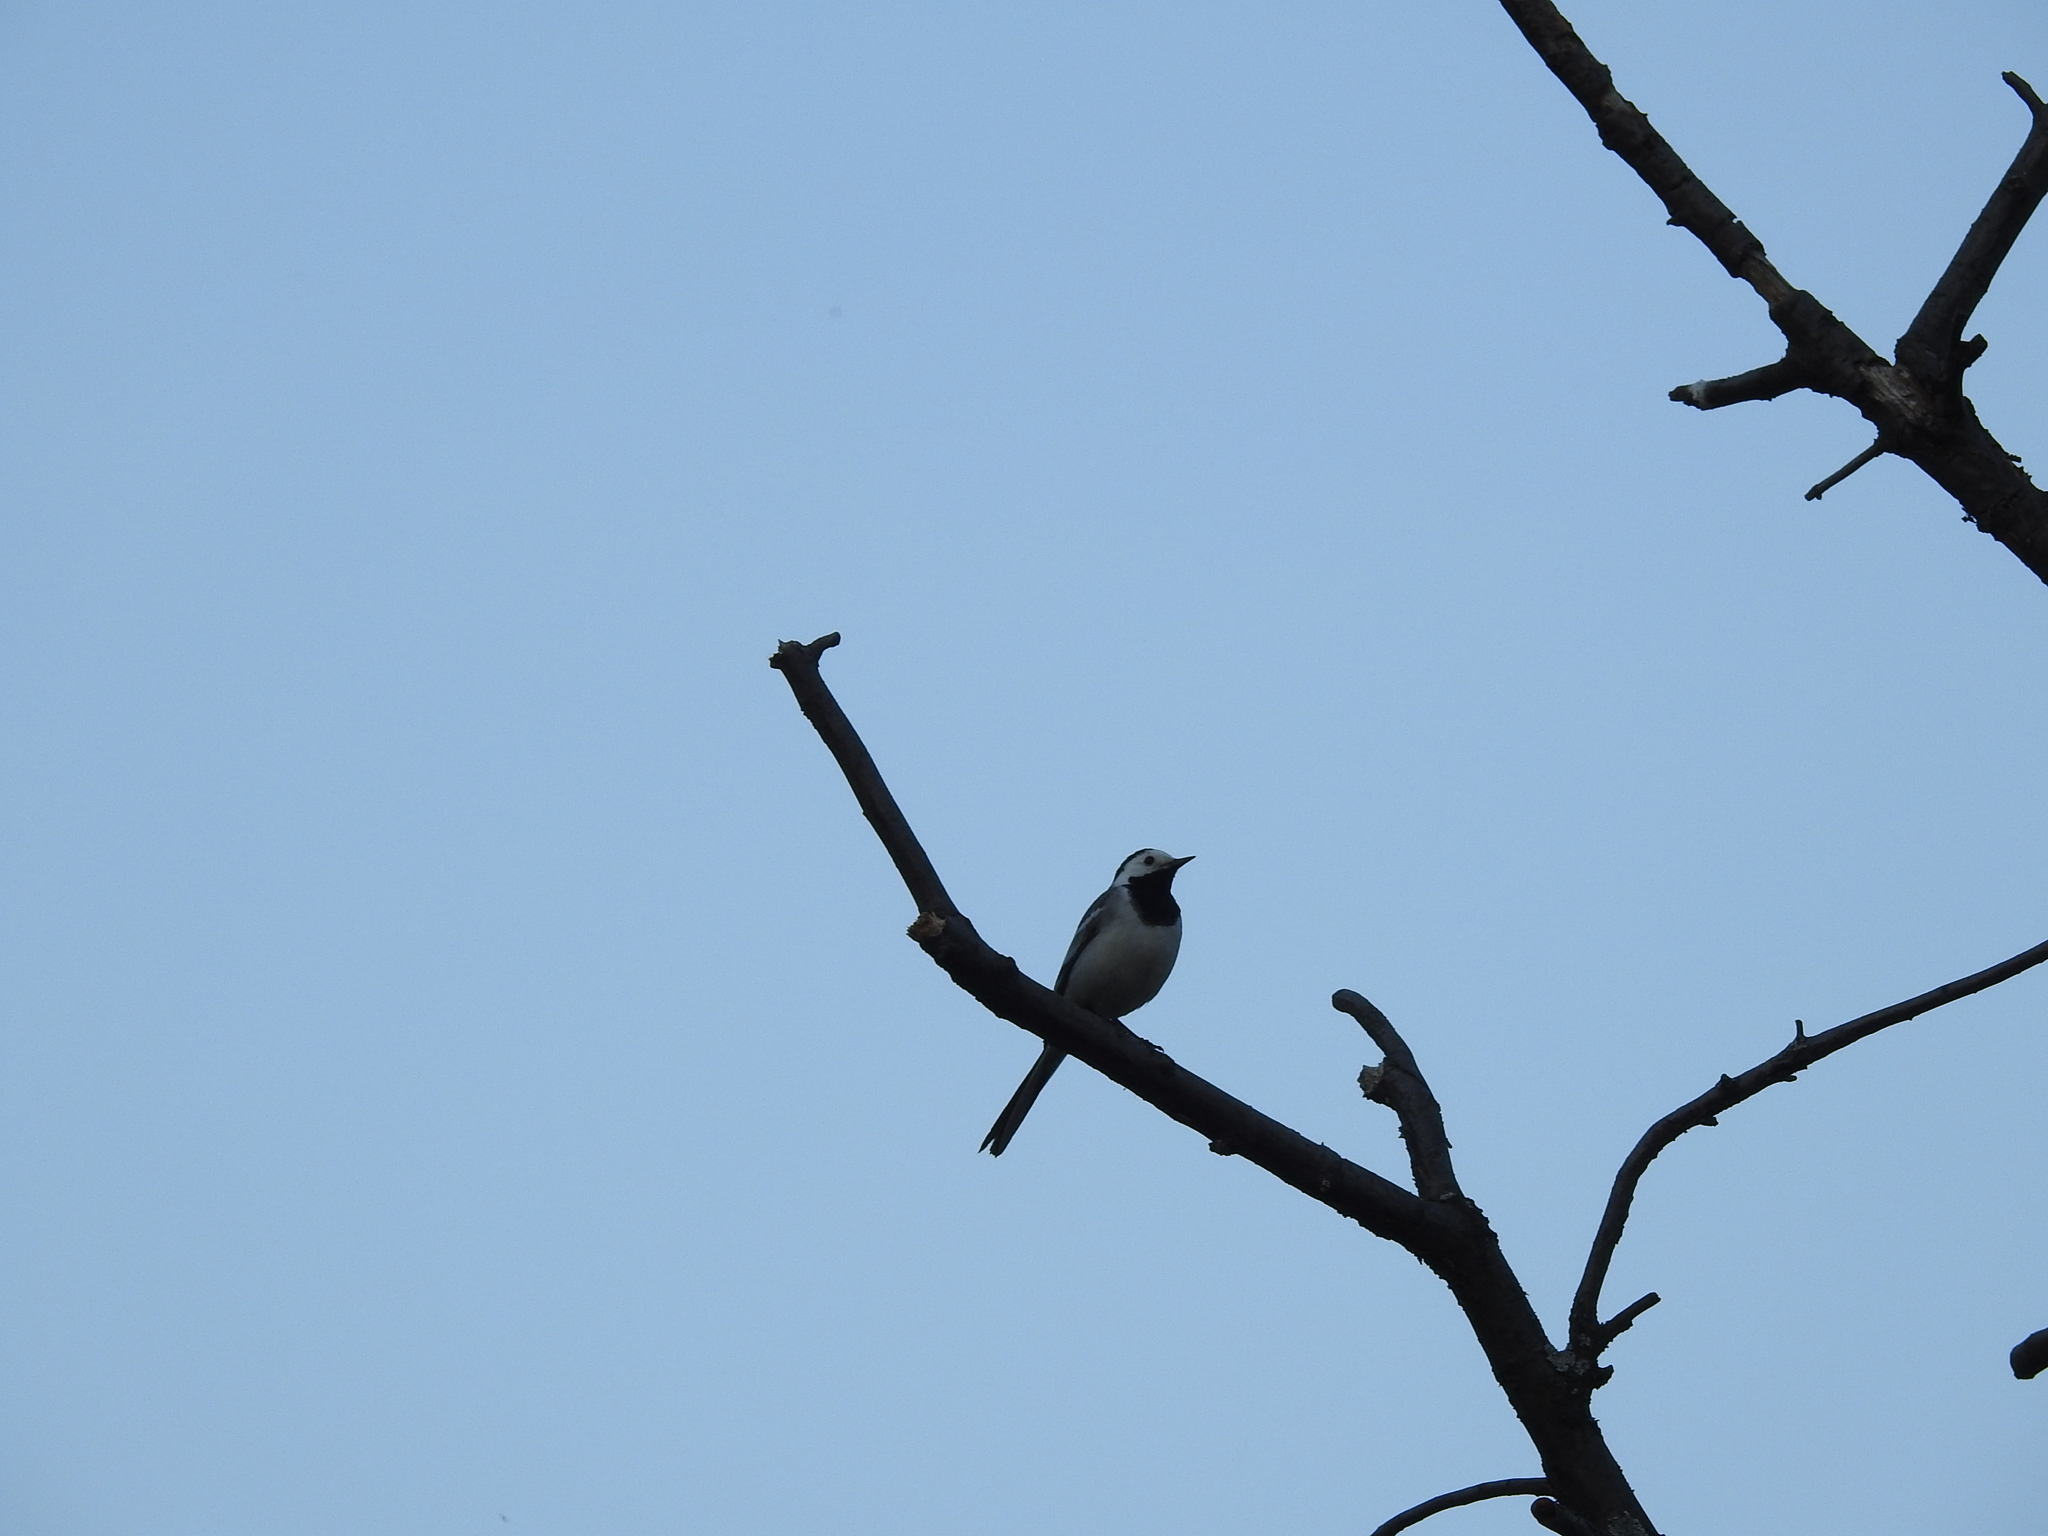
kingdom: Animalia
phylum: Chordata
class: Aves
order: Passeriformes
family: Motacillidae
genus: Motacilla
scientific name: Motacilla alba
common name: White wagtail
